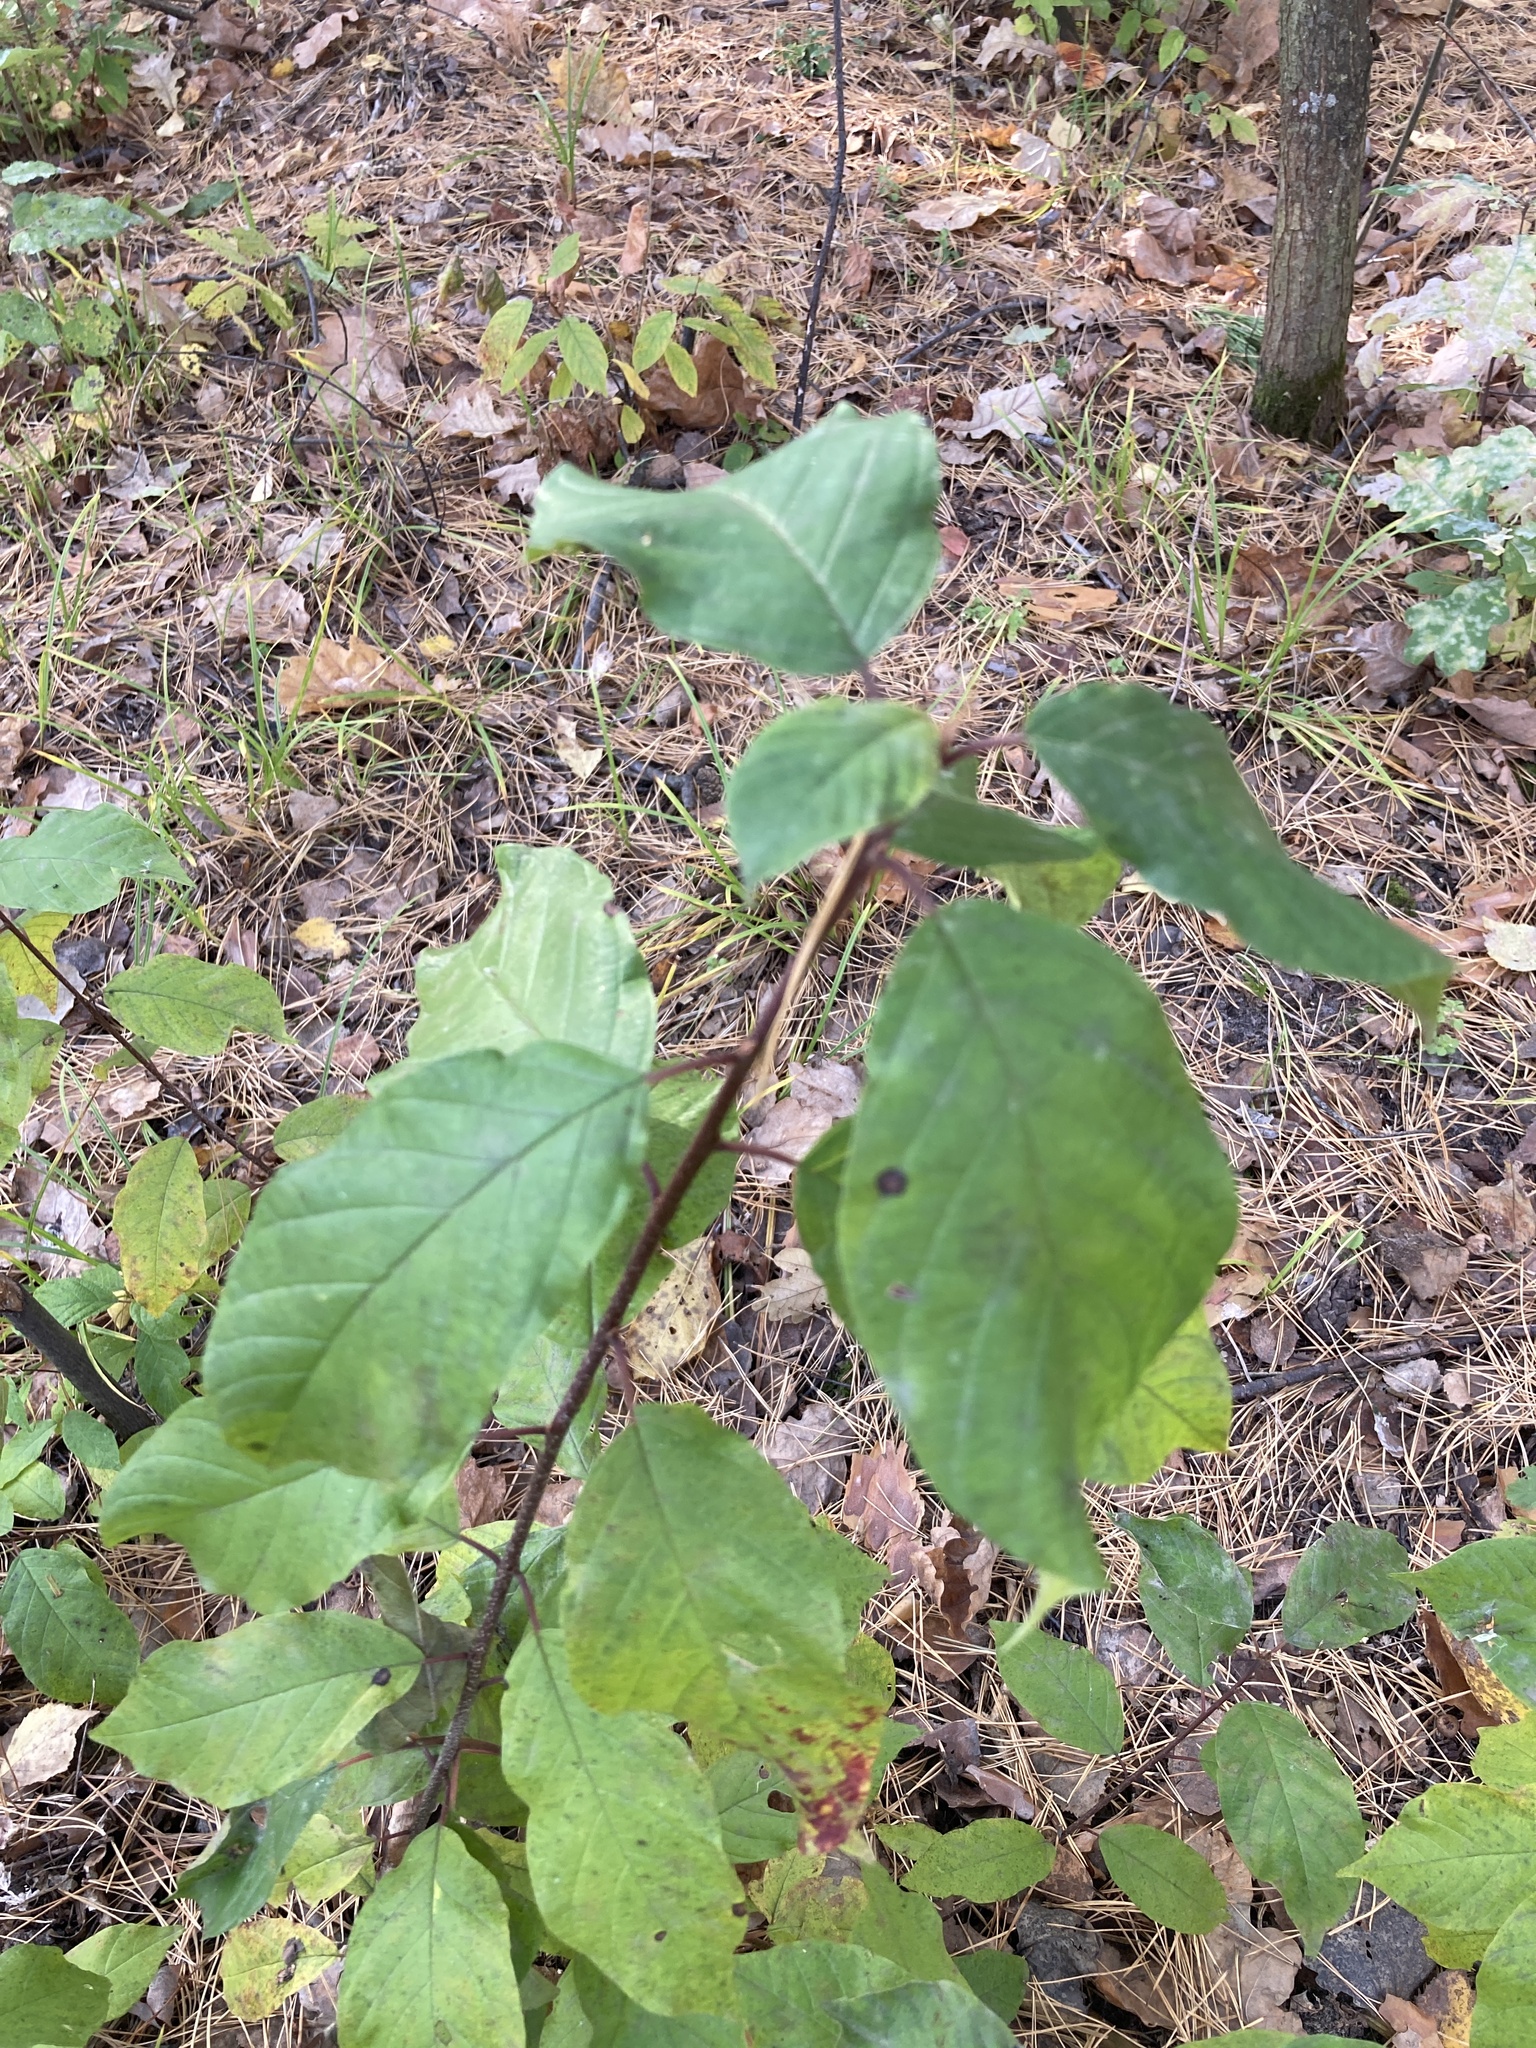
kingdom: Plantae
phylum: Tracheophyta
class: Magnoliopsida
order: Rosales
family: Rhamnaceae
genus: Frangula
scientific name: Frangula alnus
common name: Alder buckthorn
